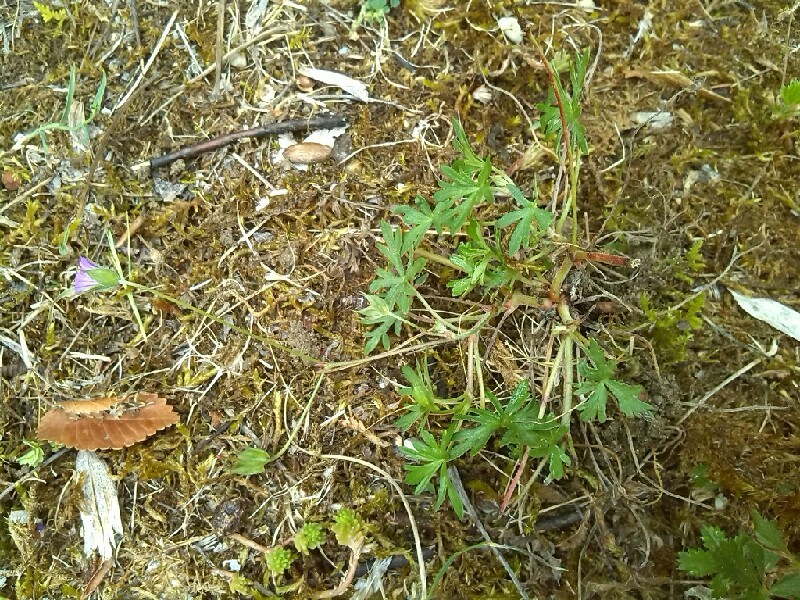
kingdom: Plantae
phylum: Tracheophyta
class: Magnoliopsida
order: Geraniales
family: Geraniaceae
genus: Geranium
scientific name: Geranium columbinum
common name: Long-stalked crane's-bill
